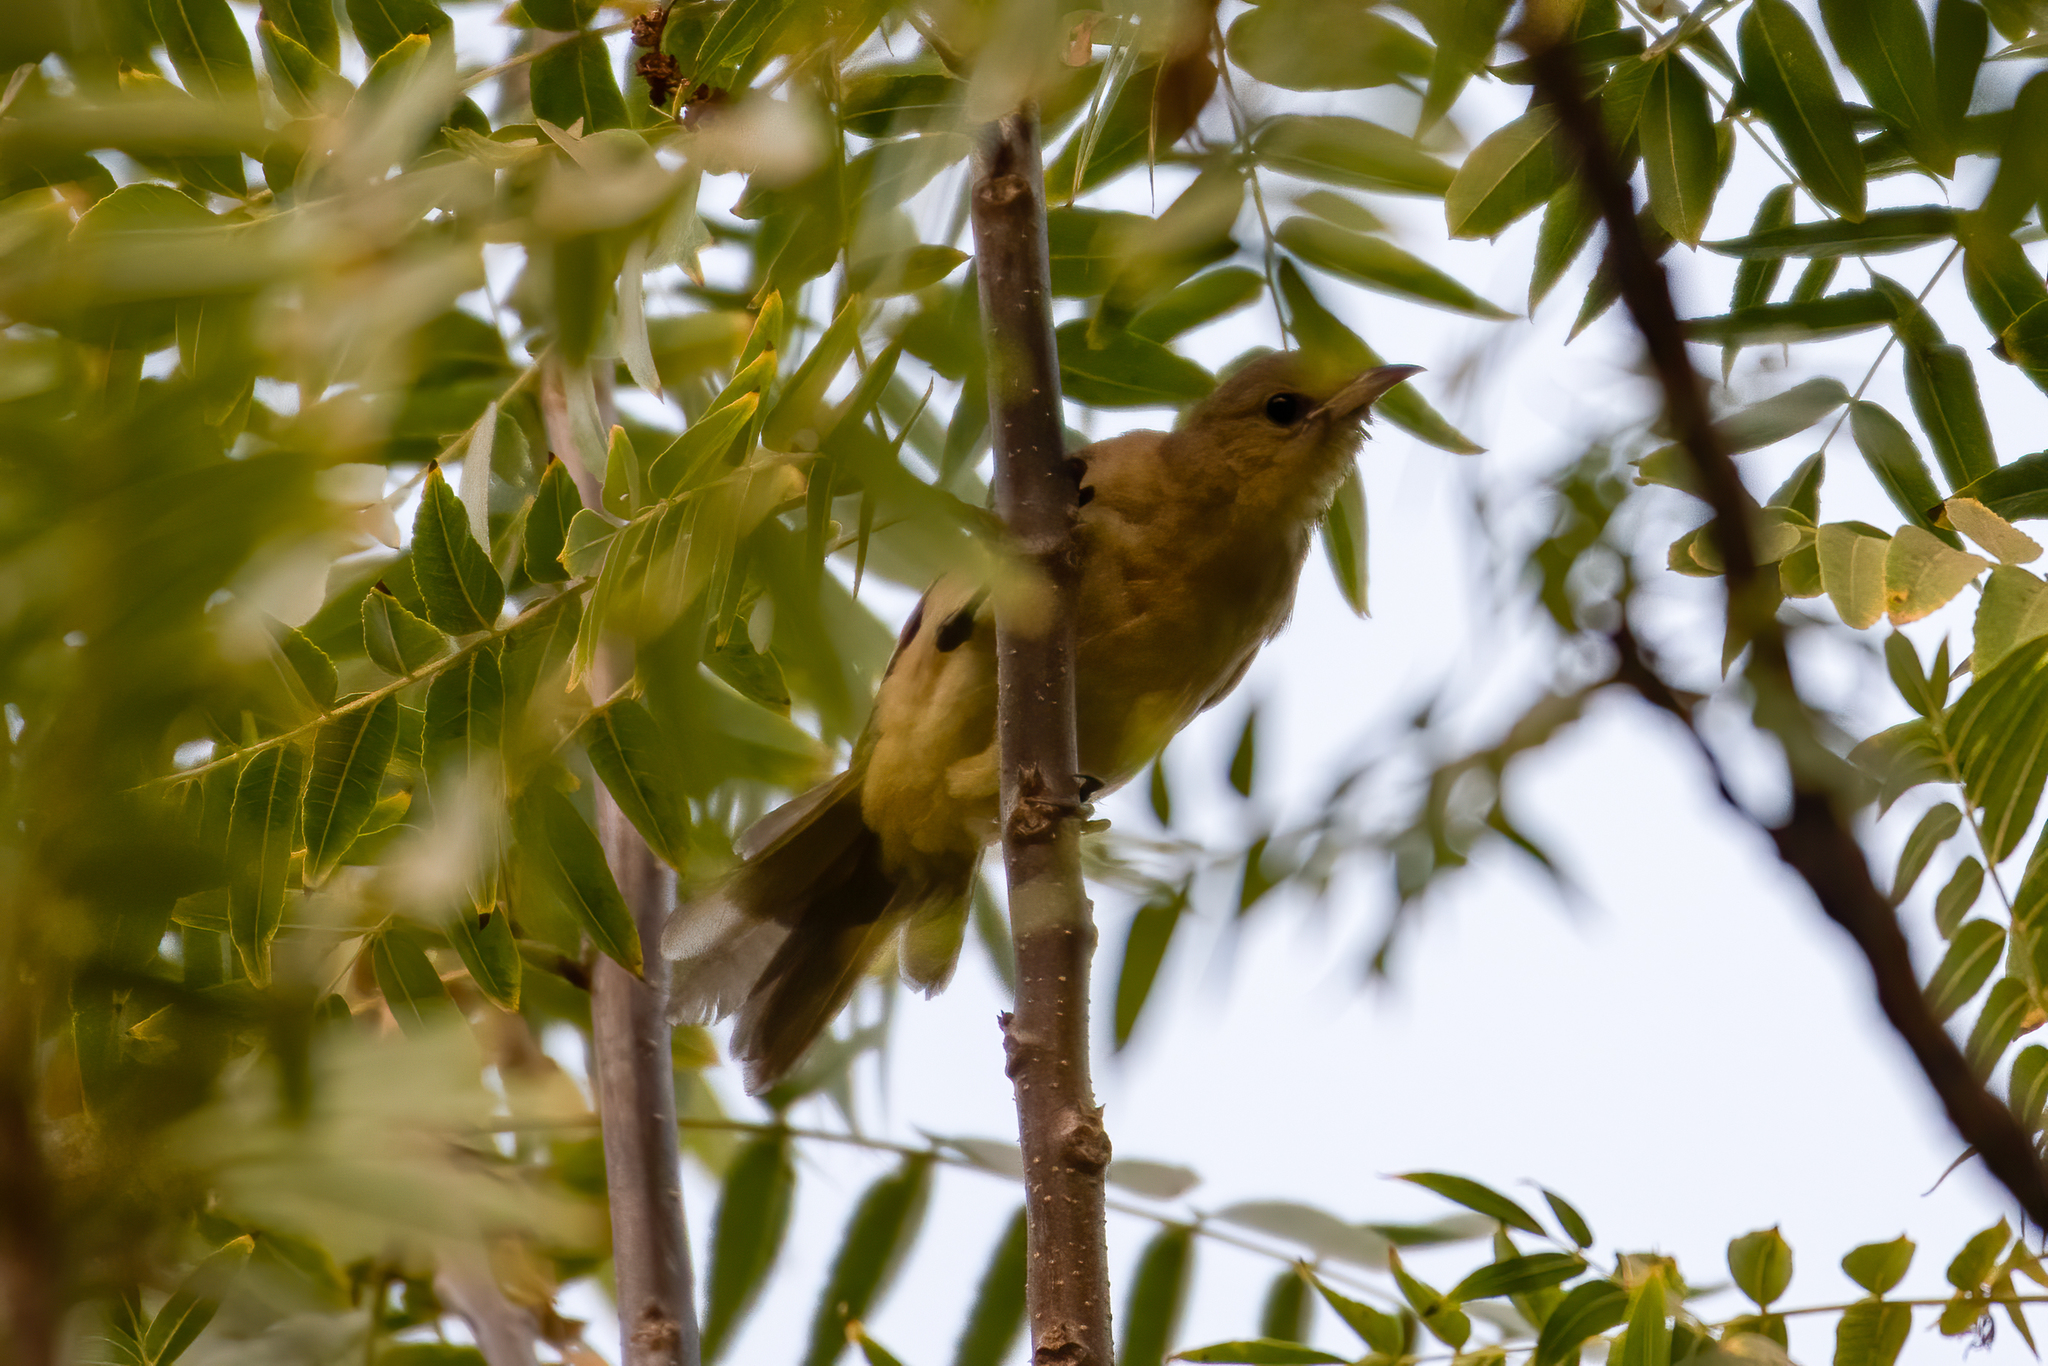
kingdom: Animalia
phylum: Chordata
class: Aves
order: Passeriformes
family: Cardinalidae
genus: Piranga
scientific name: Piranga ludoviciana
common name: Western tanager
